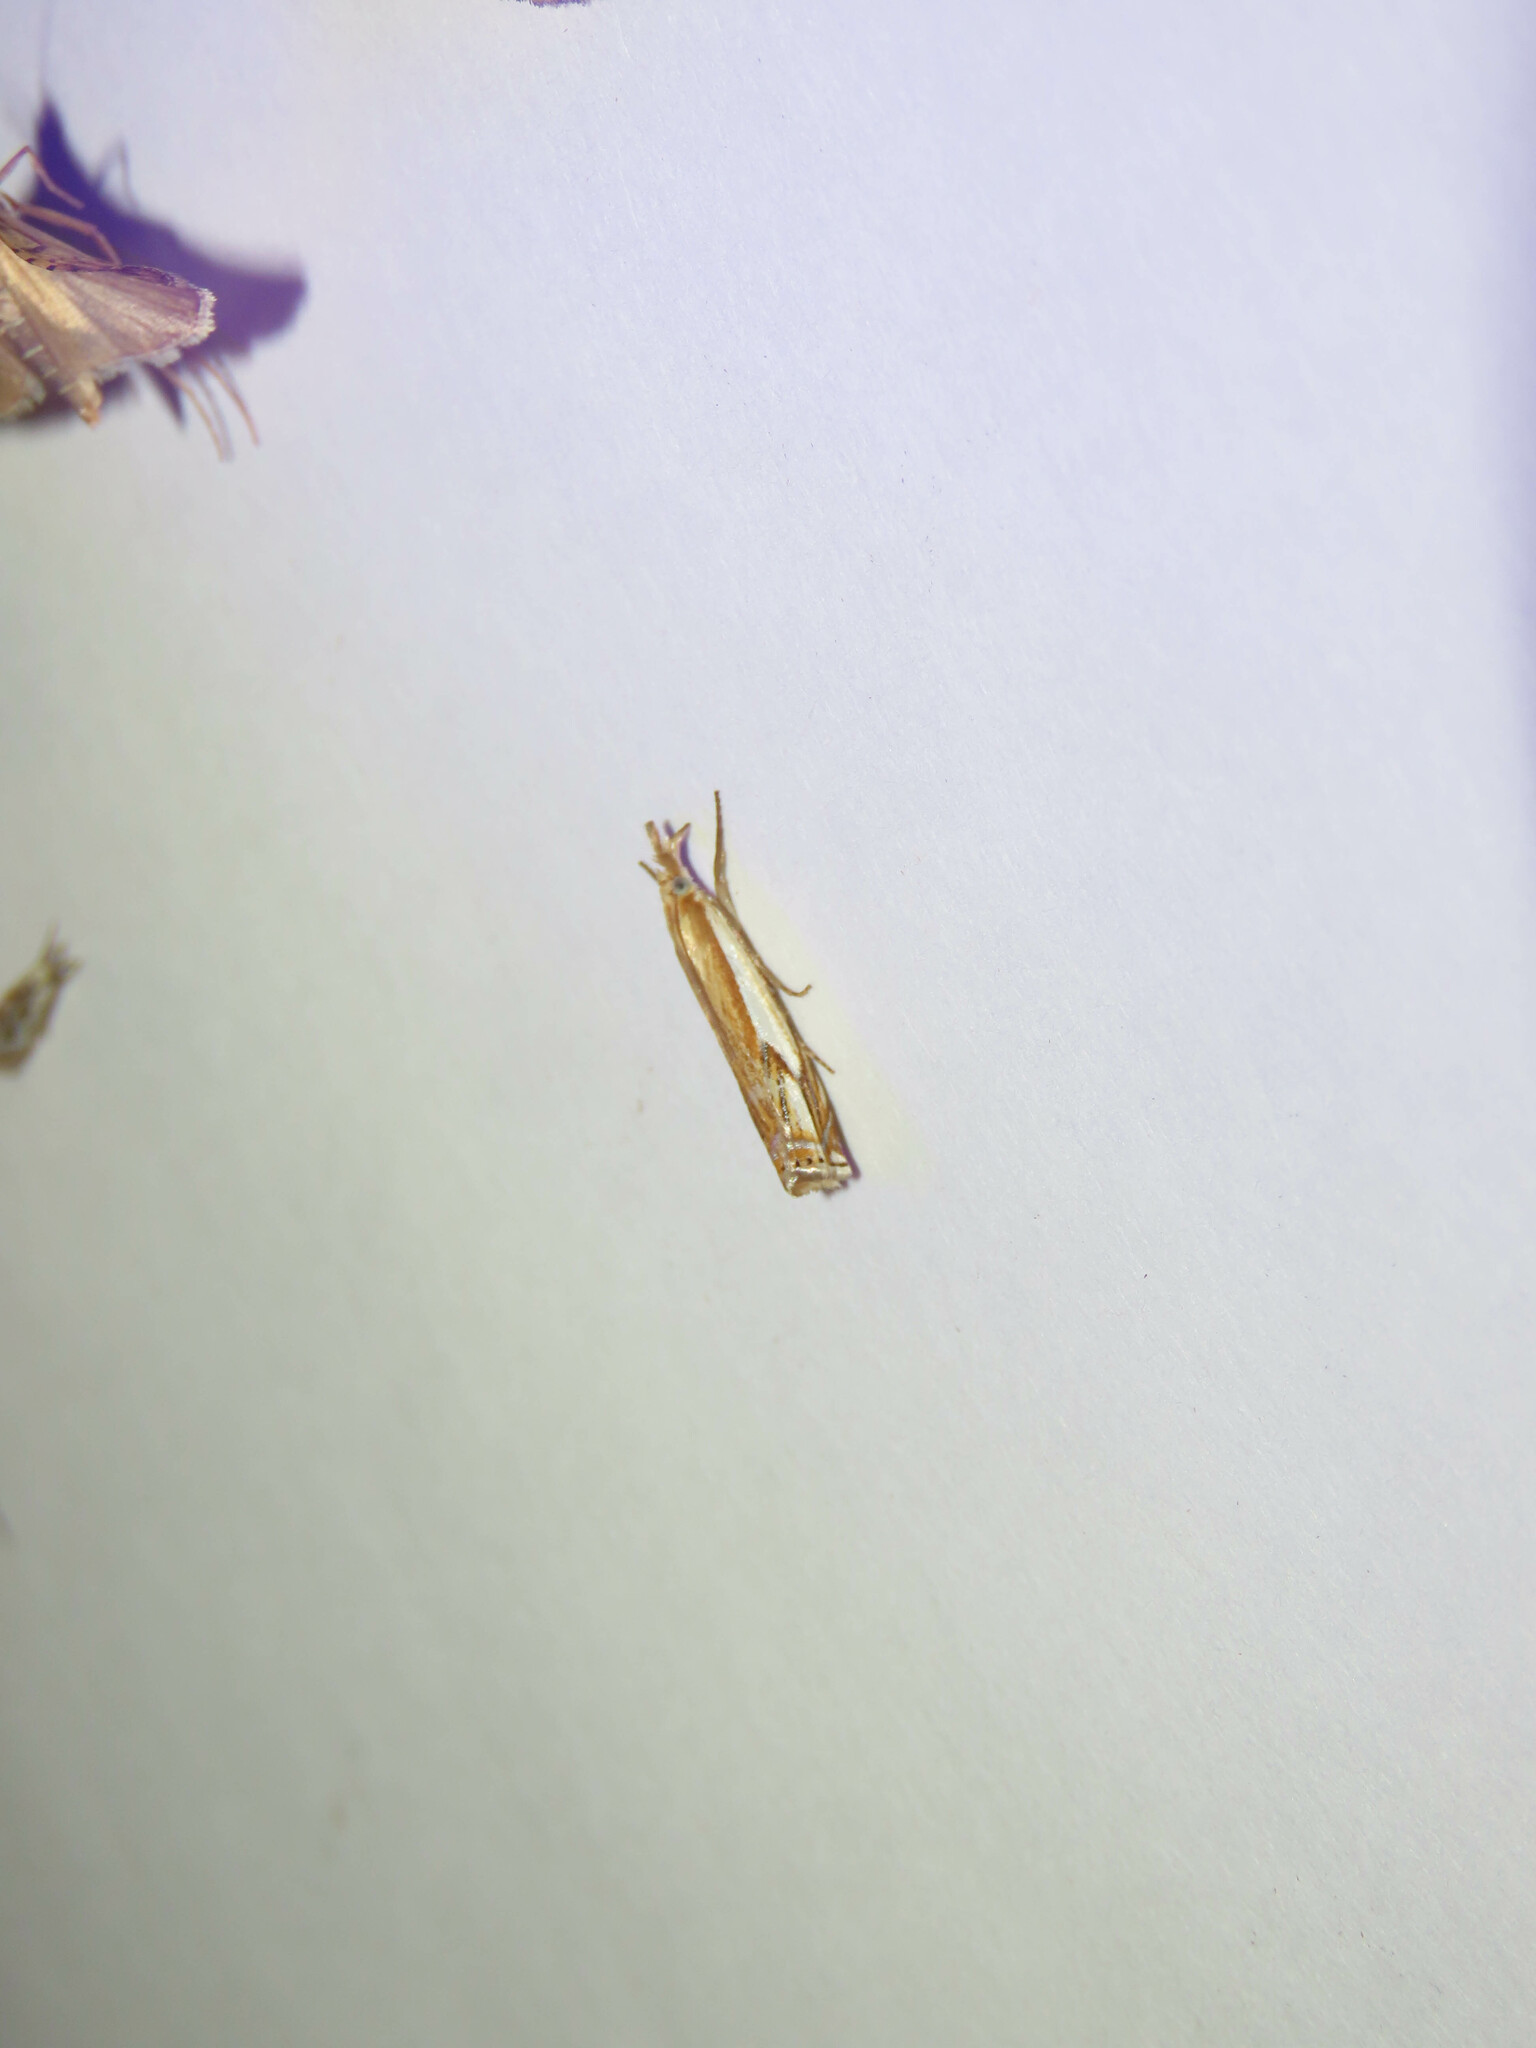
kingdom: Animalia
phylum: Arthropoda
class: Insecta
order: Lepidoptera
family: Crambidae
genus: Crambus
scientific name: Crambus agitatellus
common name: Double-banded grass-veneer
